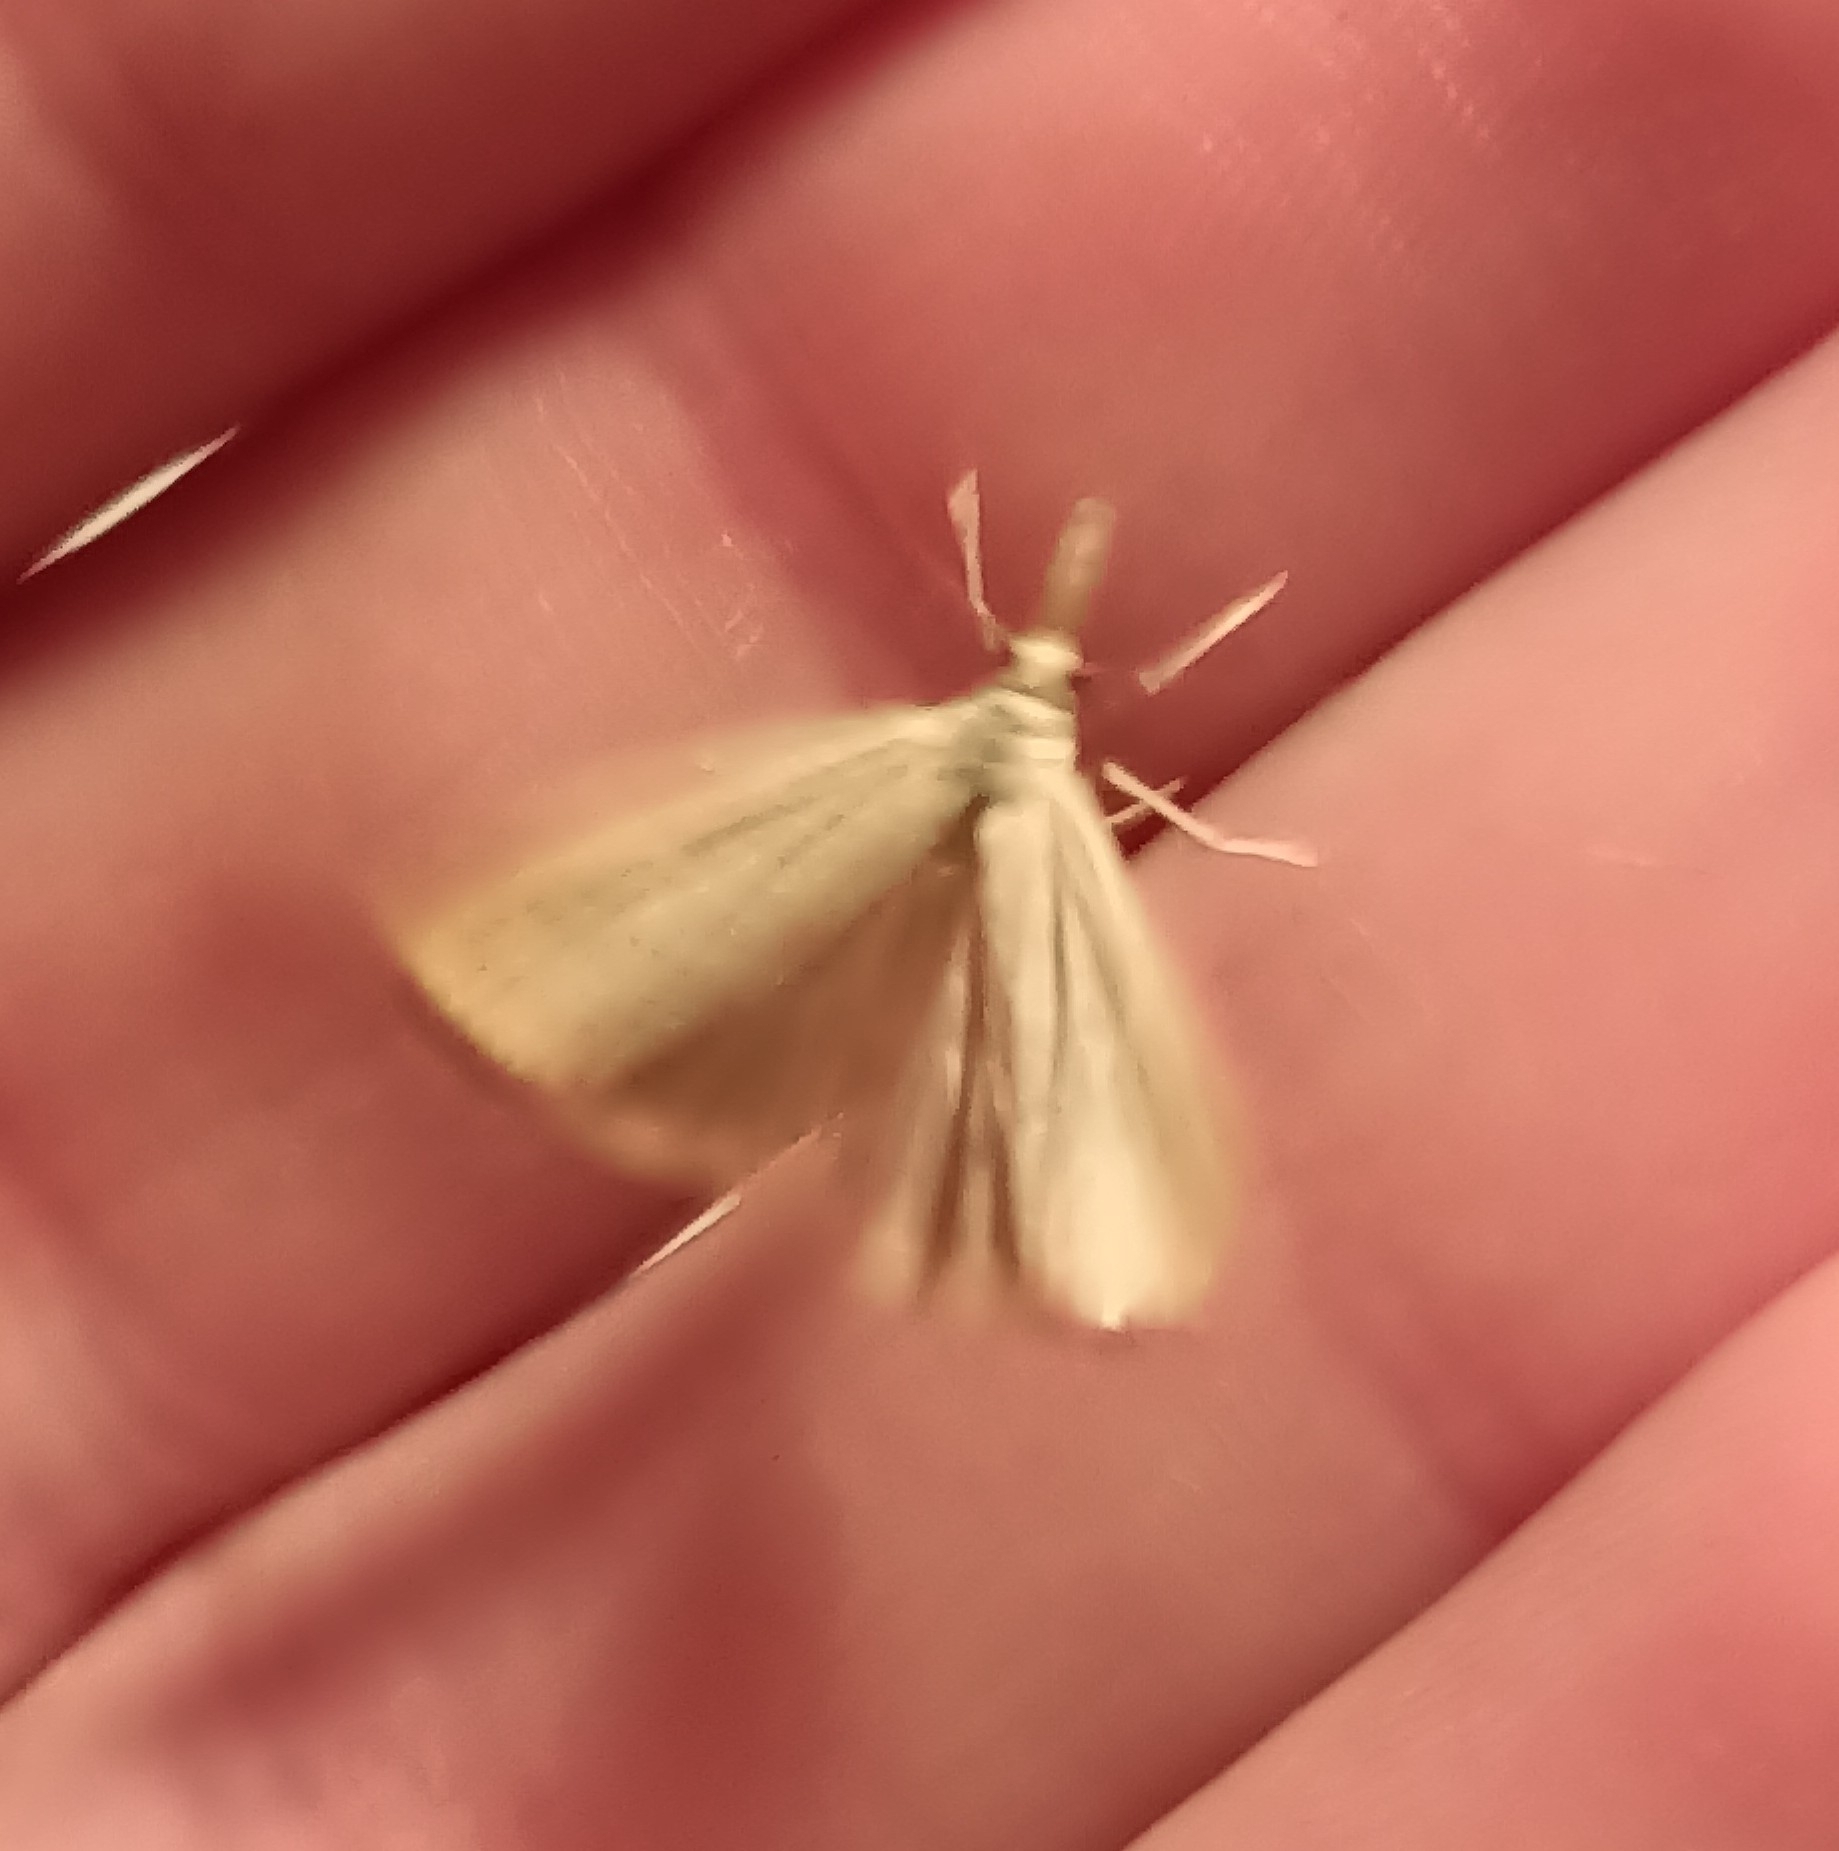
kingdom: Animalia
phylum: Arthropoda
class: Insecta
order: Lepidoptera
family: Crambidae
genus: Agriphila
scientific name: Agriphila straminella
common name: Straw grass-veneer
